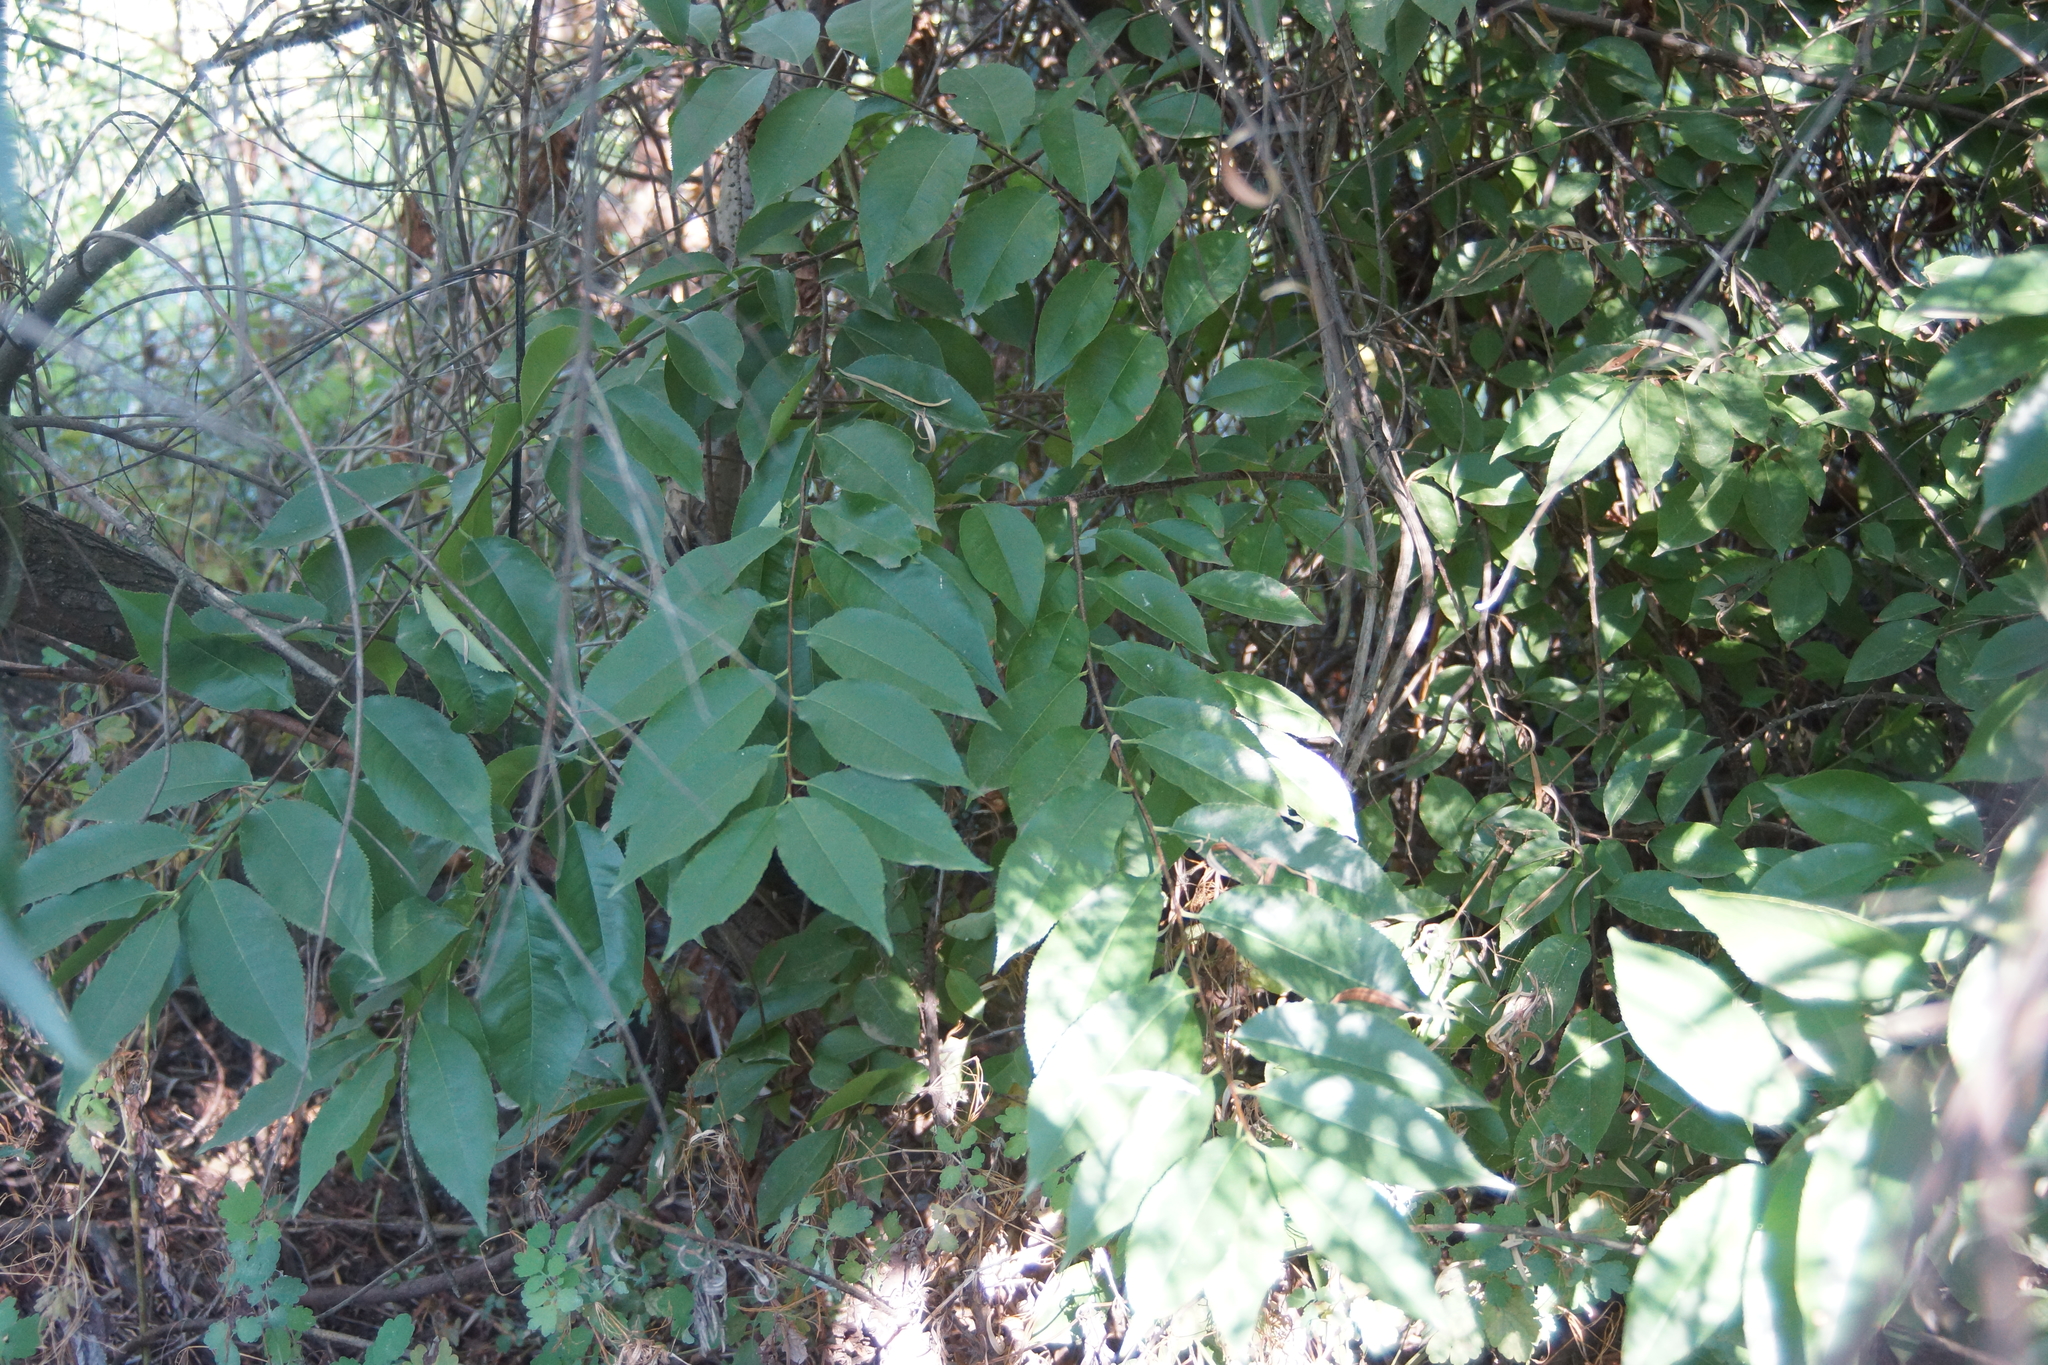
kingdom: Plantae
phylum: Tracheophyta
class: Magnoliopsida
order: Rosales
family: Rosaceae
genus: Prunus
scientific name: Prunus serotina
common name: Black cherry
